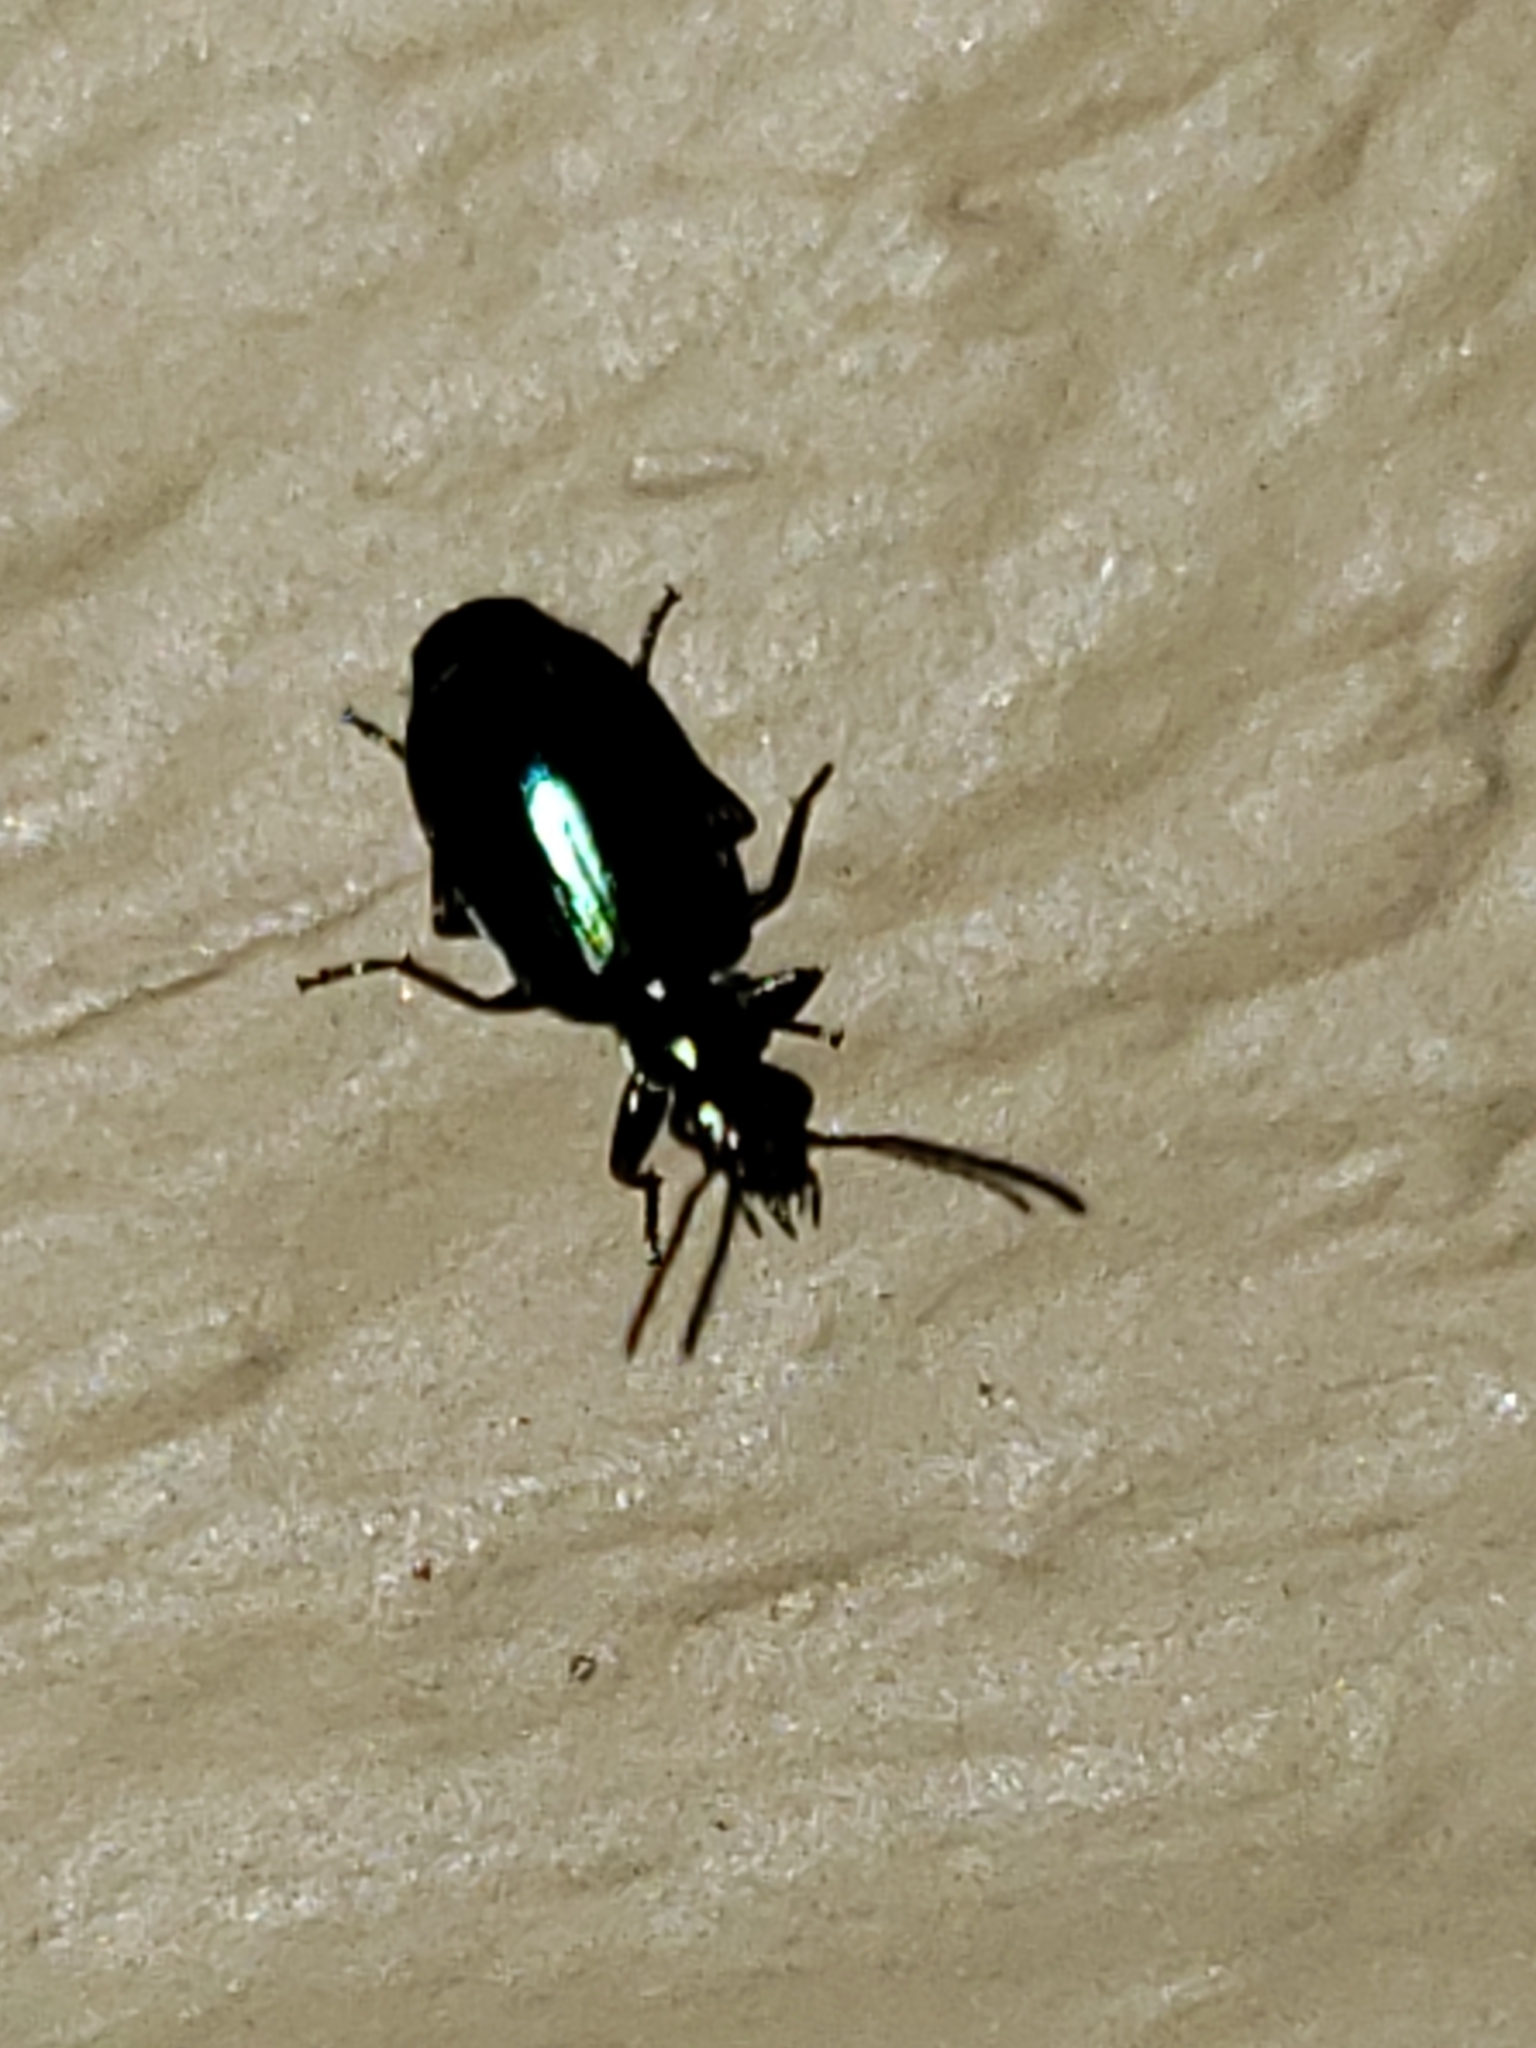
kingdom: Animalia
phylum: Arthropoda
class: Insecta
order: Coleoptera
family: Carabidae
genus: Lebia
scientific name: Lebia viridis
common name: Flower lebia beetle
